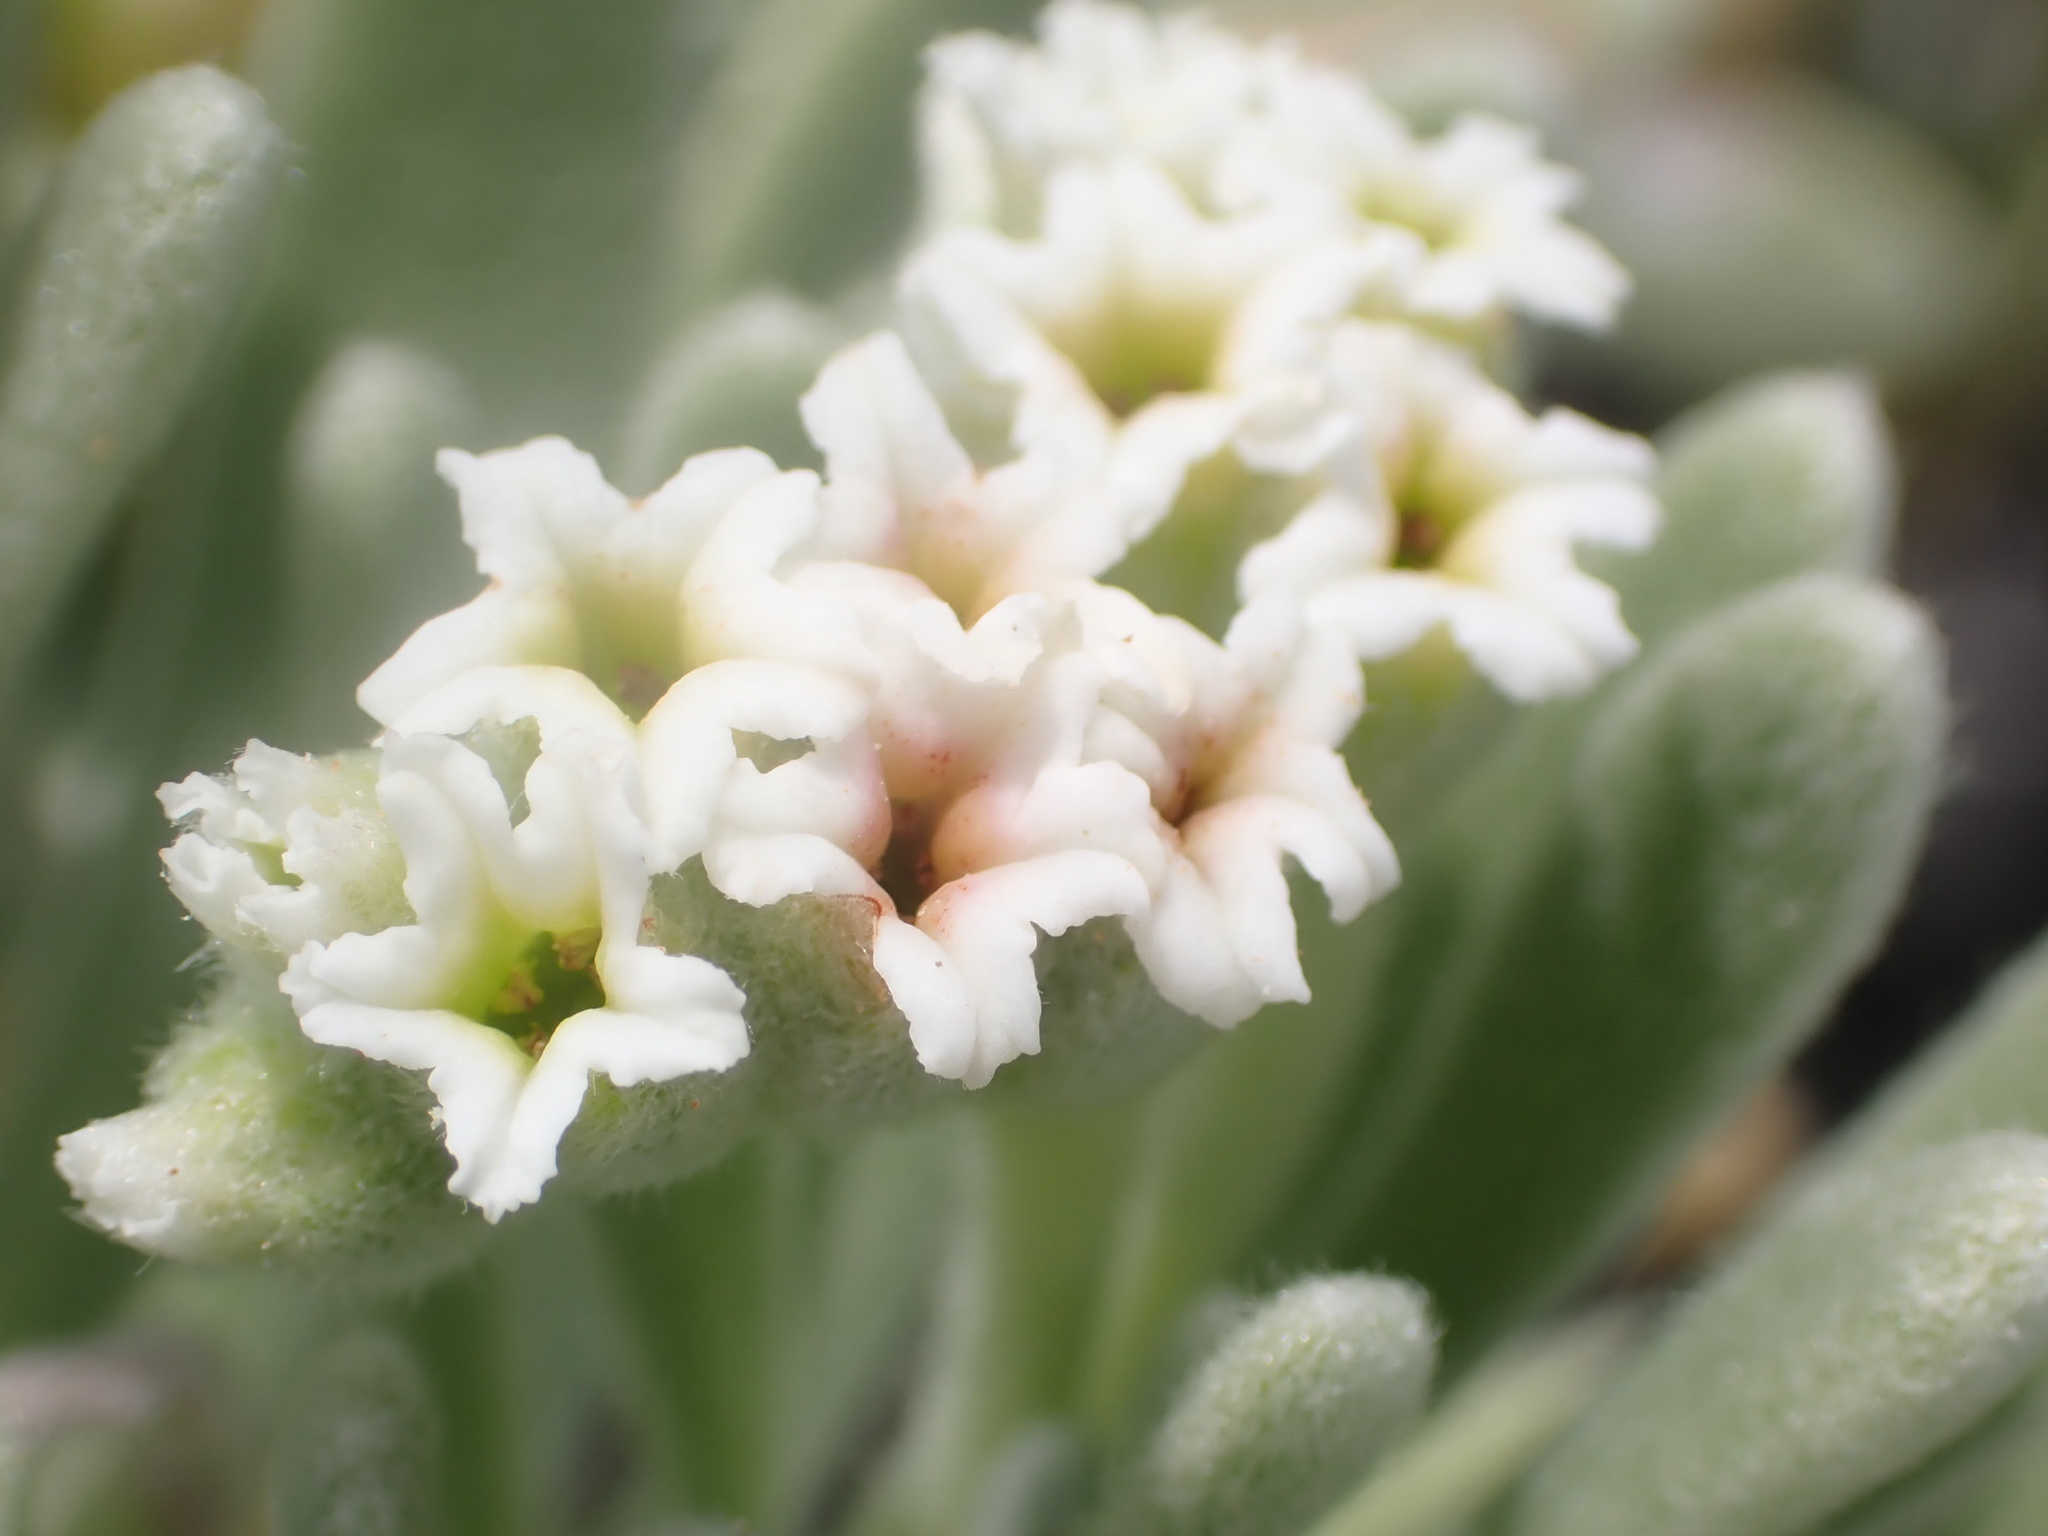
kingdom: Plantae
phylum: Tracheophyta
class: Magnoliopsida
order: Boraginales
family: Heliotropiaceae
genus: Tournefortia
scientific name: Tournefortia gnaphalodes
